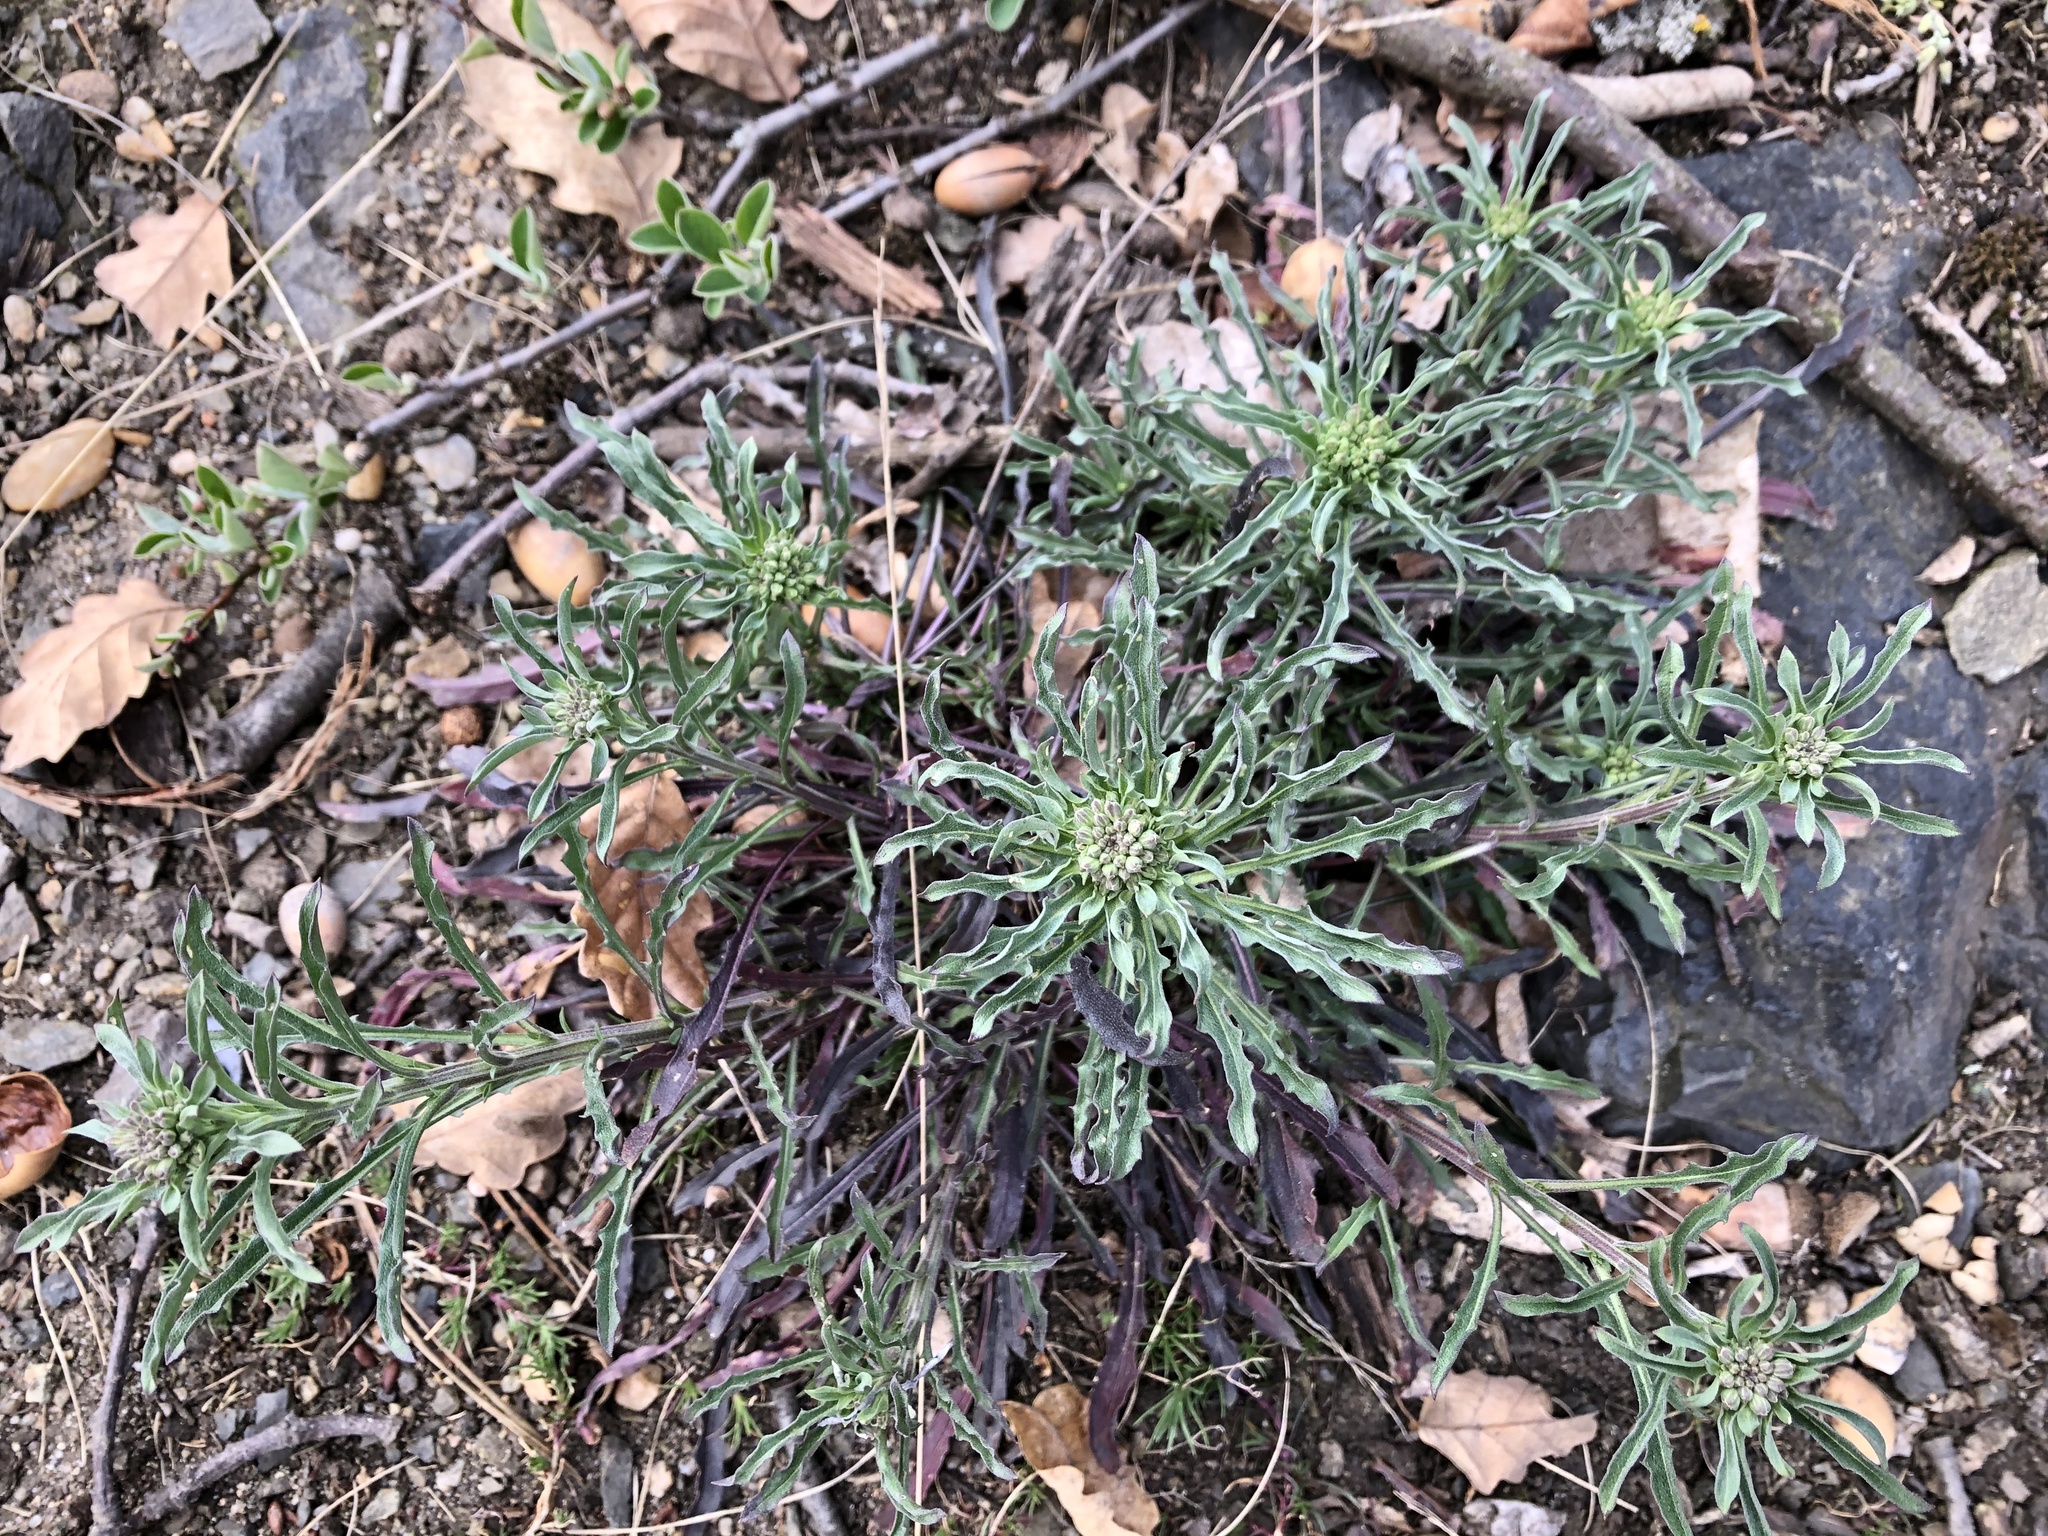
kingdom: Plantae
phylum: Tracheophyta
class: Magnoliopsida
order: Brassicales
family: Brassicaceae
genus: Erysimum
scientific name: Erysimum crepidifolium
